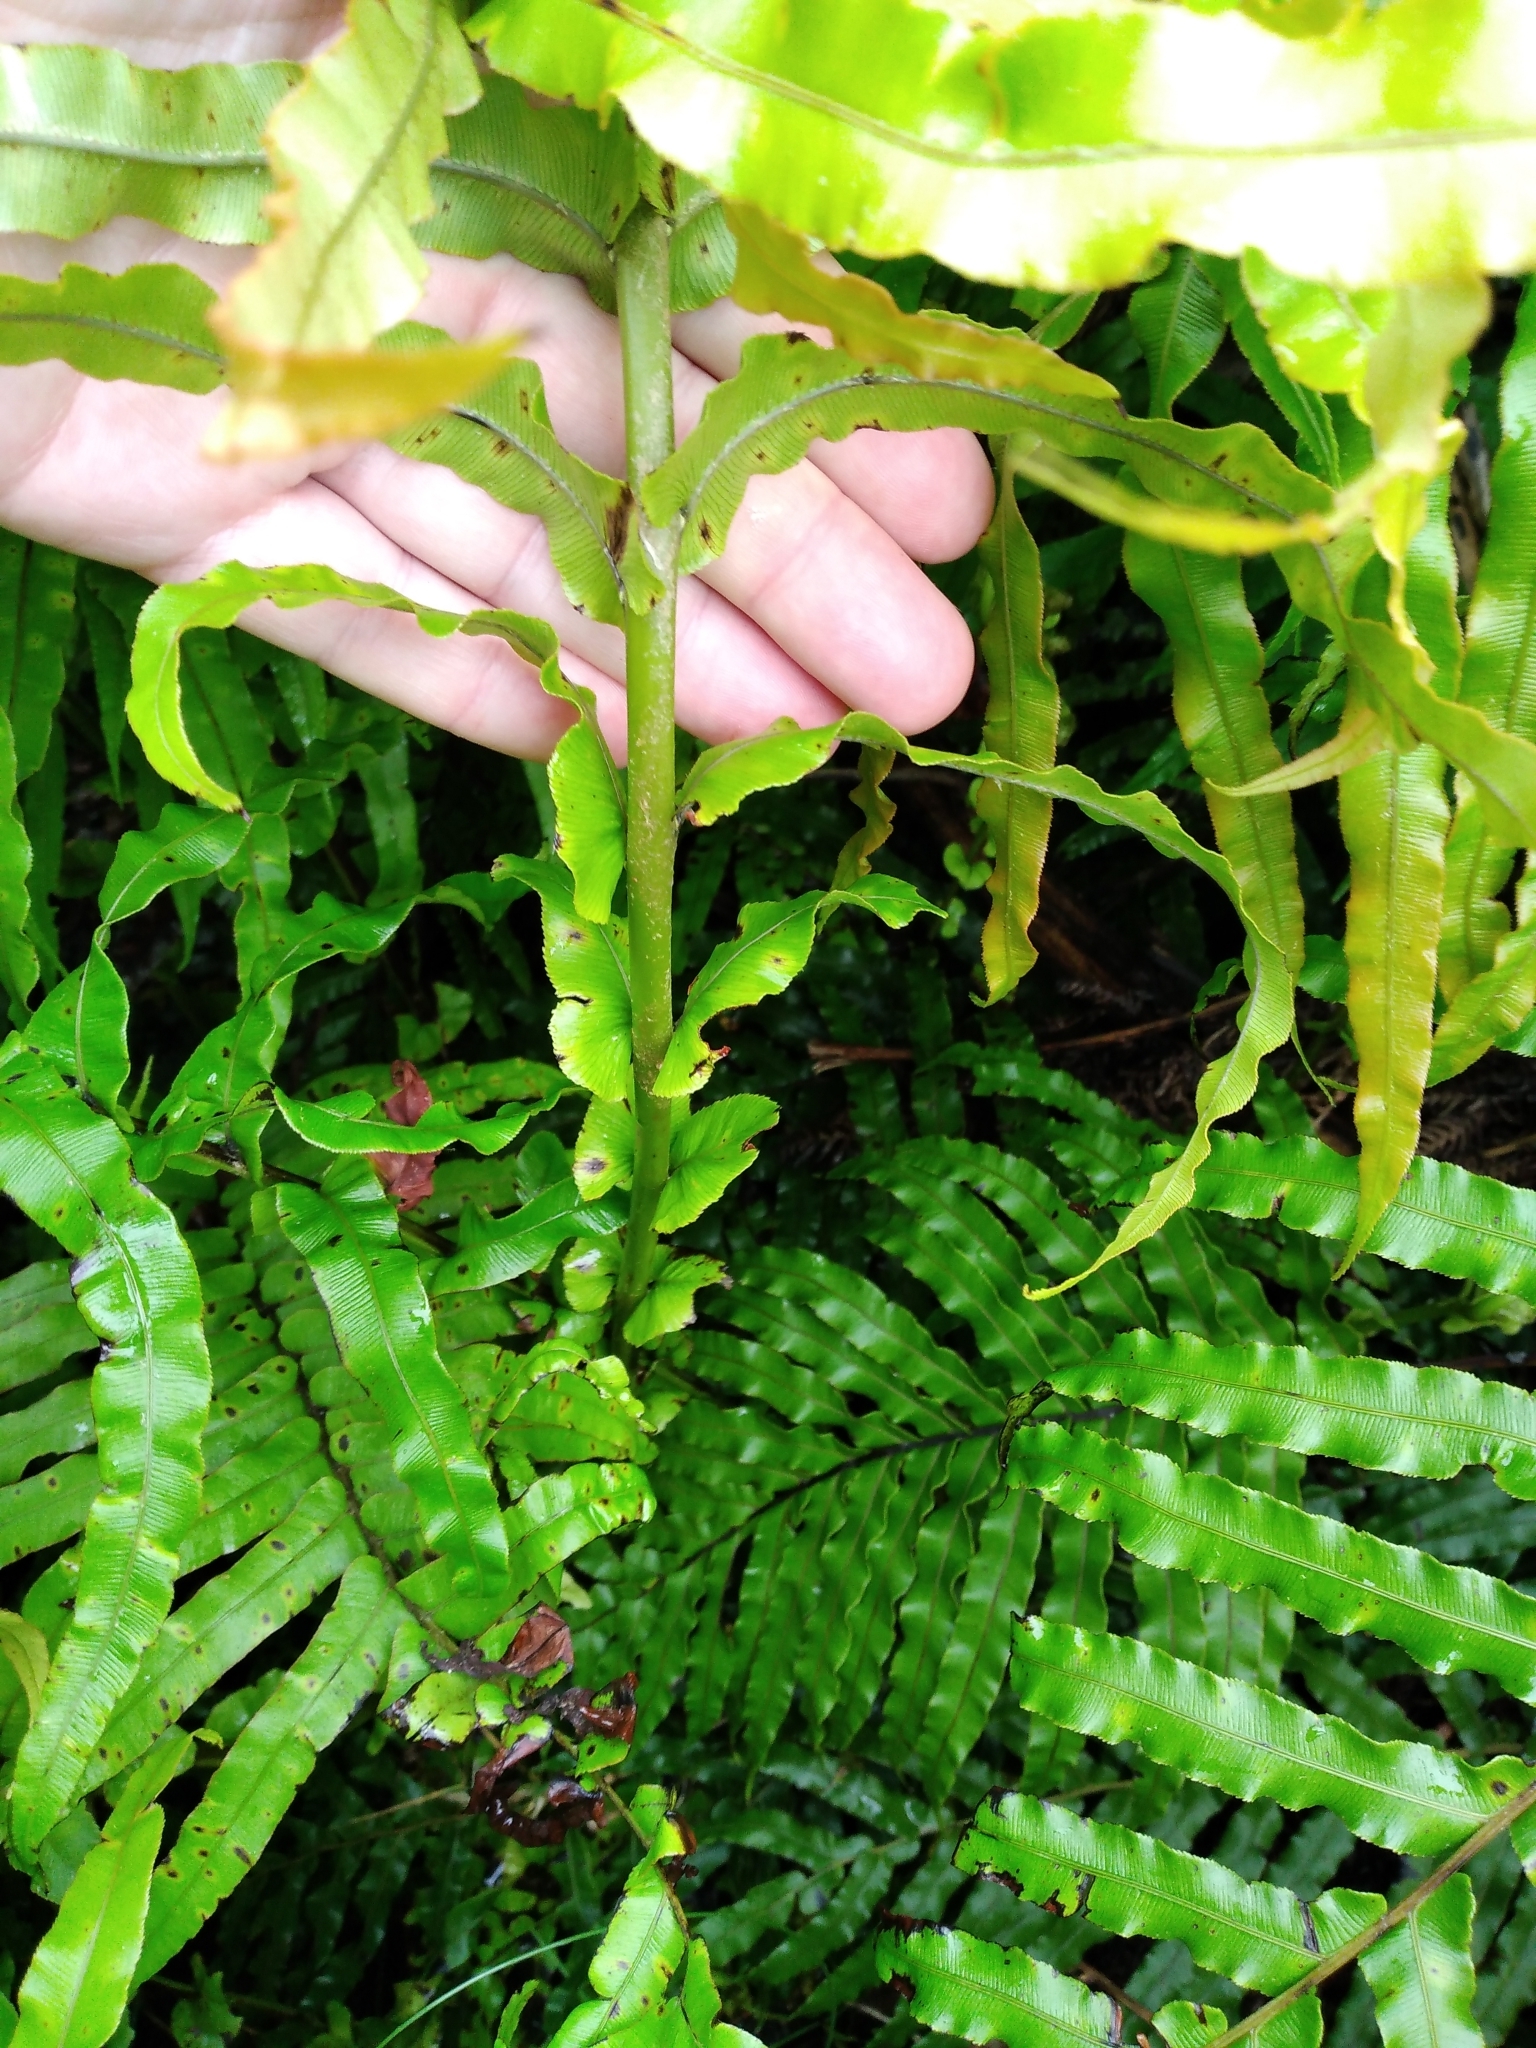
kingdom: Plantae
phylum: Tracheophyta
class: Polypodiopsida
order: Polypodiales
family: Blechnaceae
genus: Parablechnum
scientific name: Parablechnum novae-zelandiae
